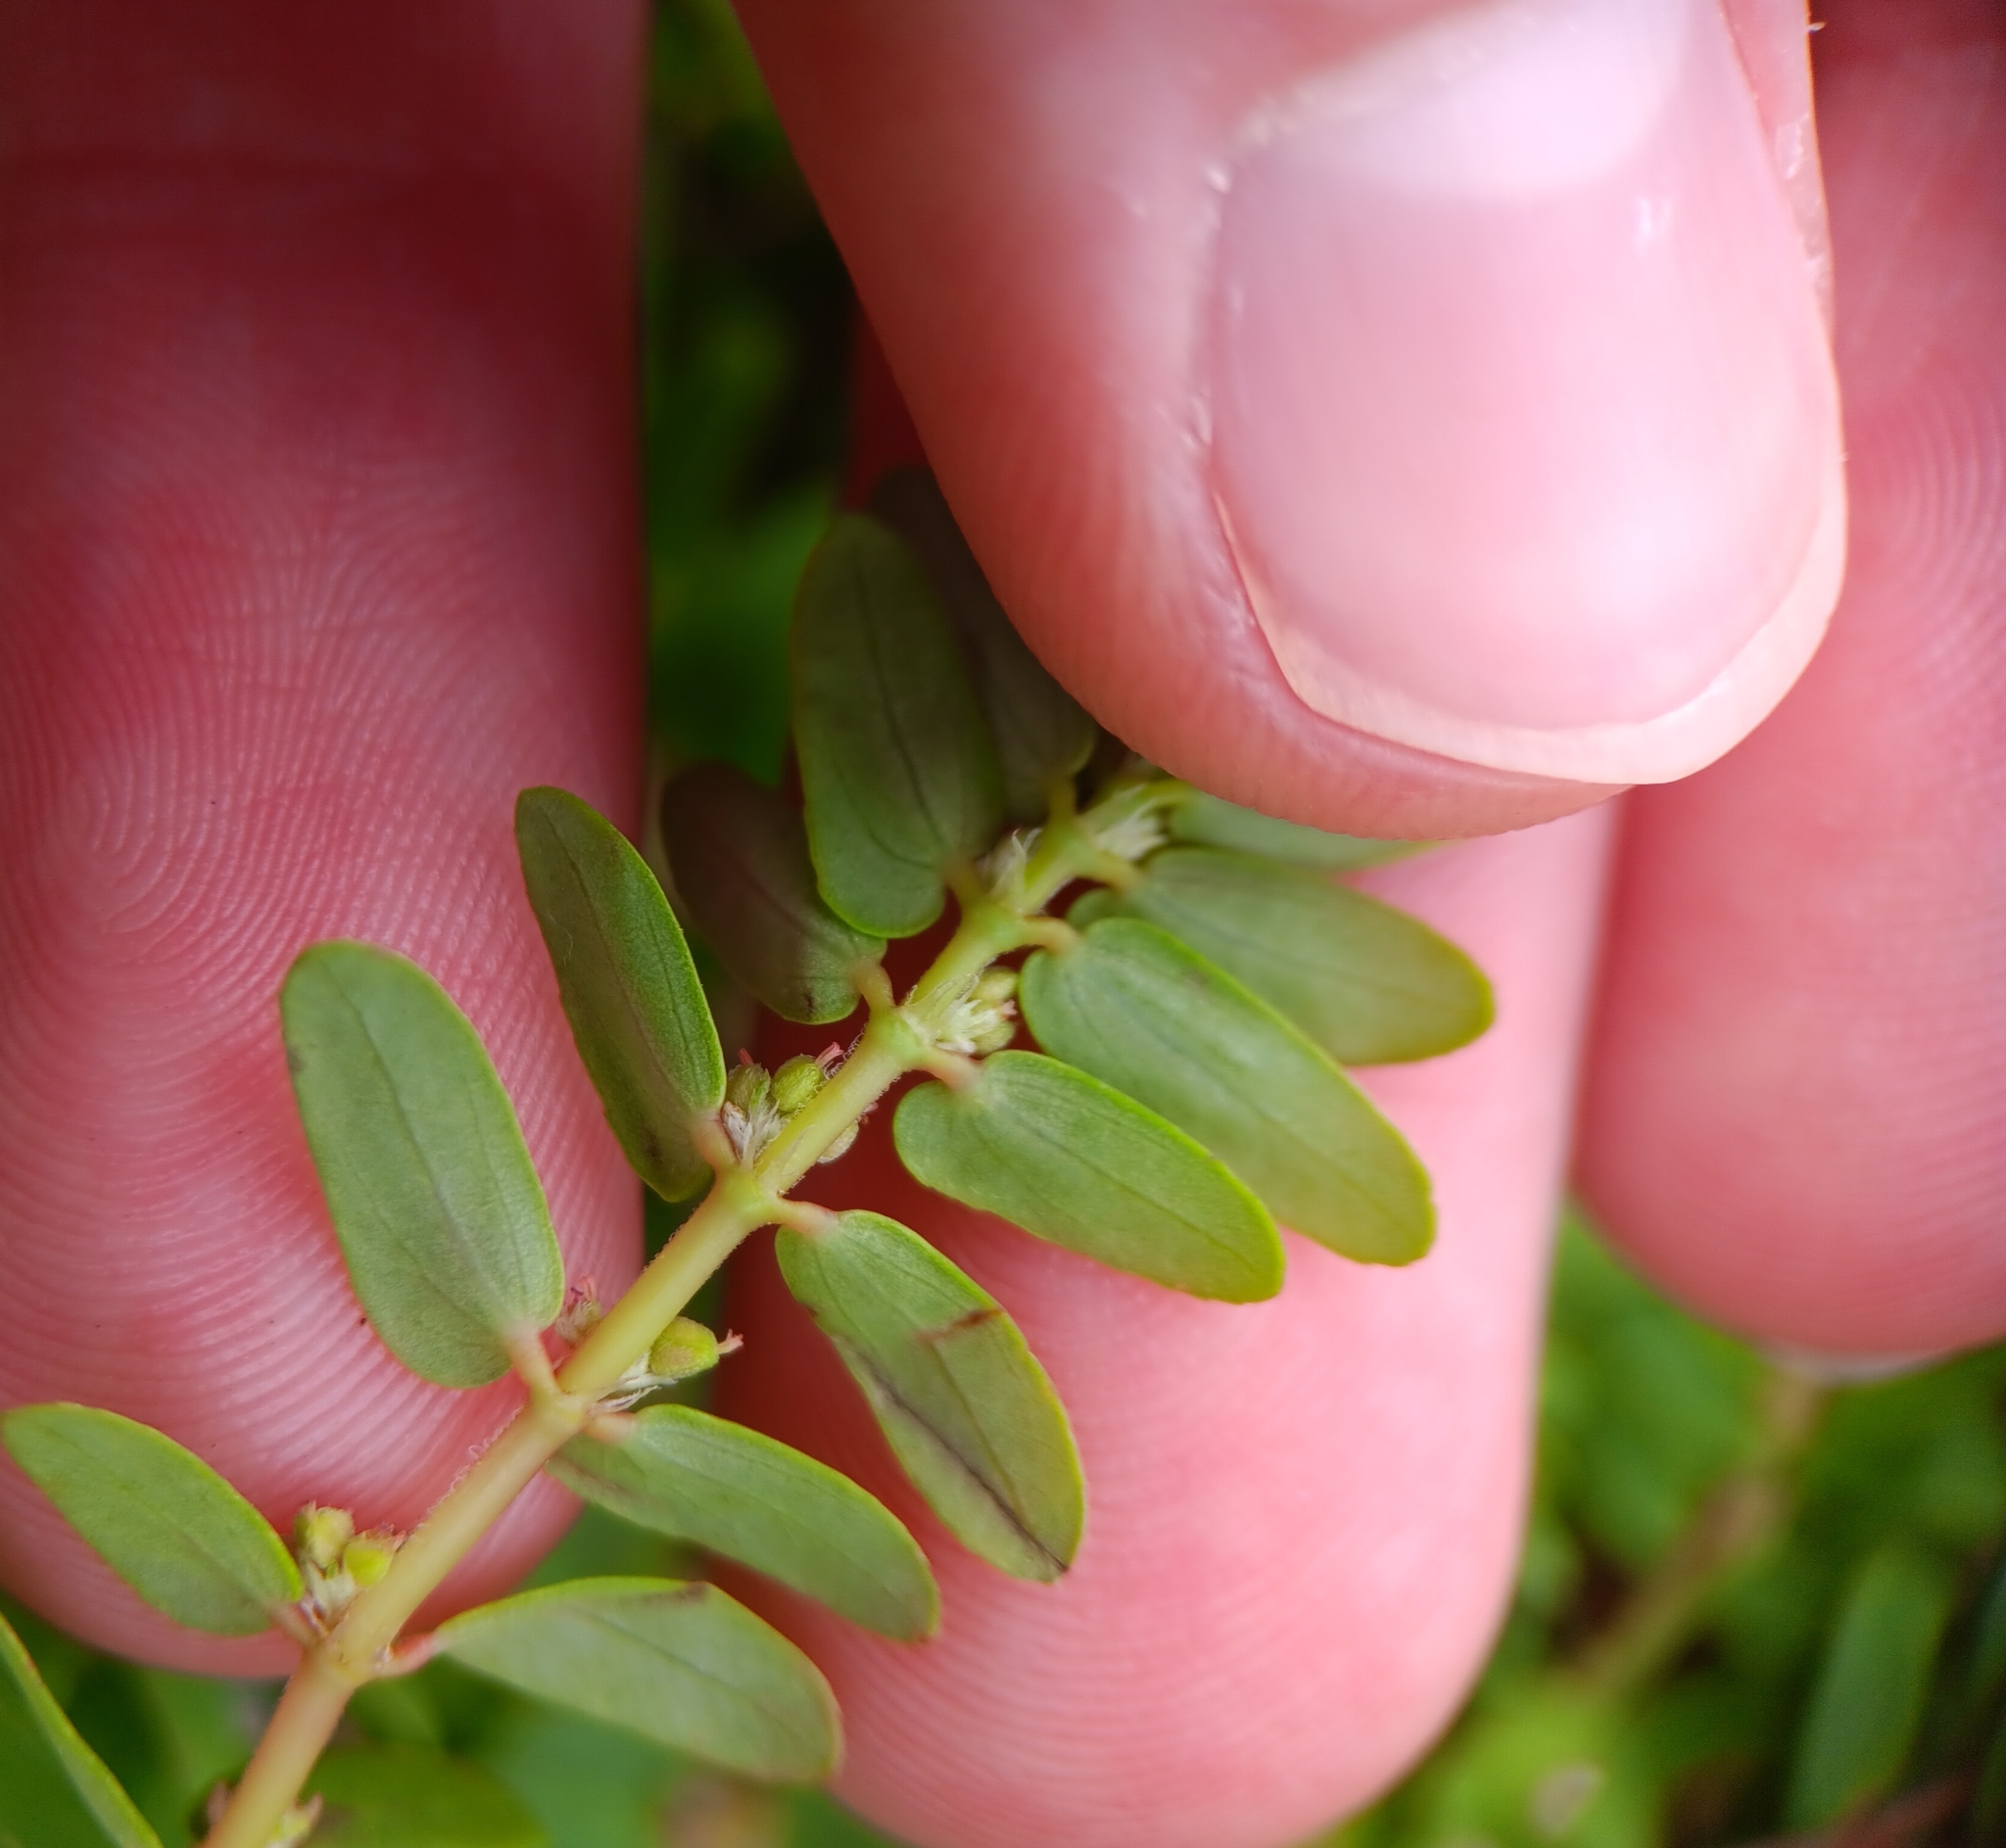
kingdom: Plantae
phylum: Tracheophyta
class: Magnoliopsida
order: Malpighiales
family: Euphorbiaceae
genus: Euphorbia
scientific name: Euphorbia thymifolia
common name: Gulf sandmat
